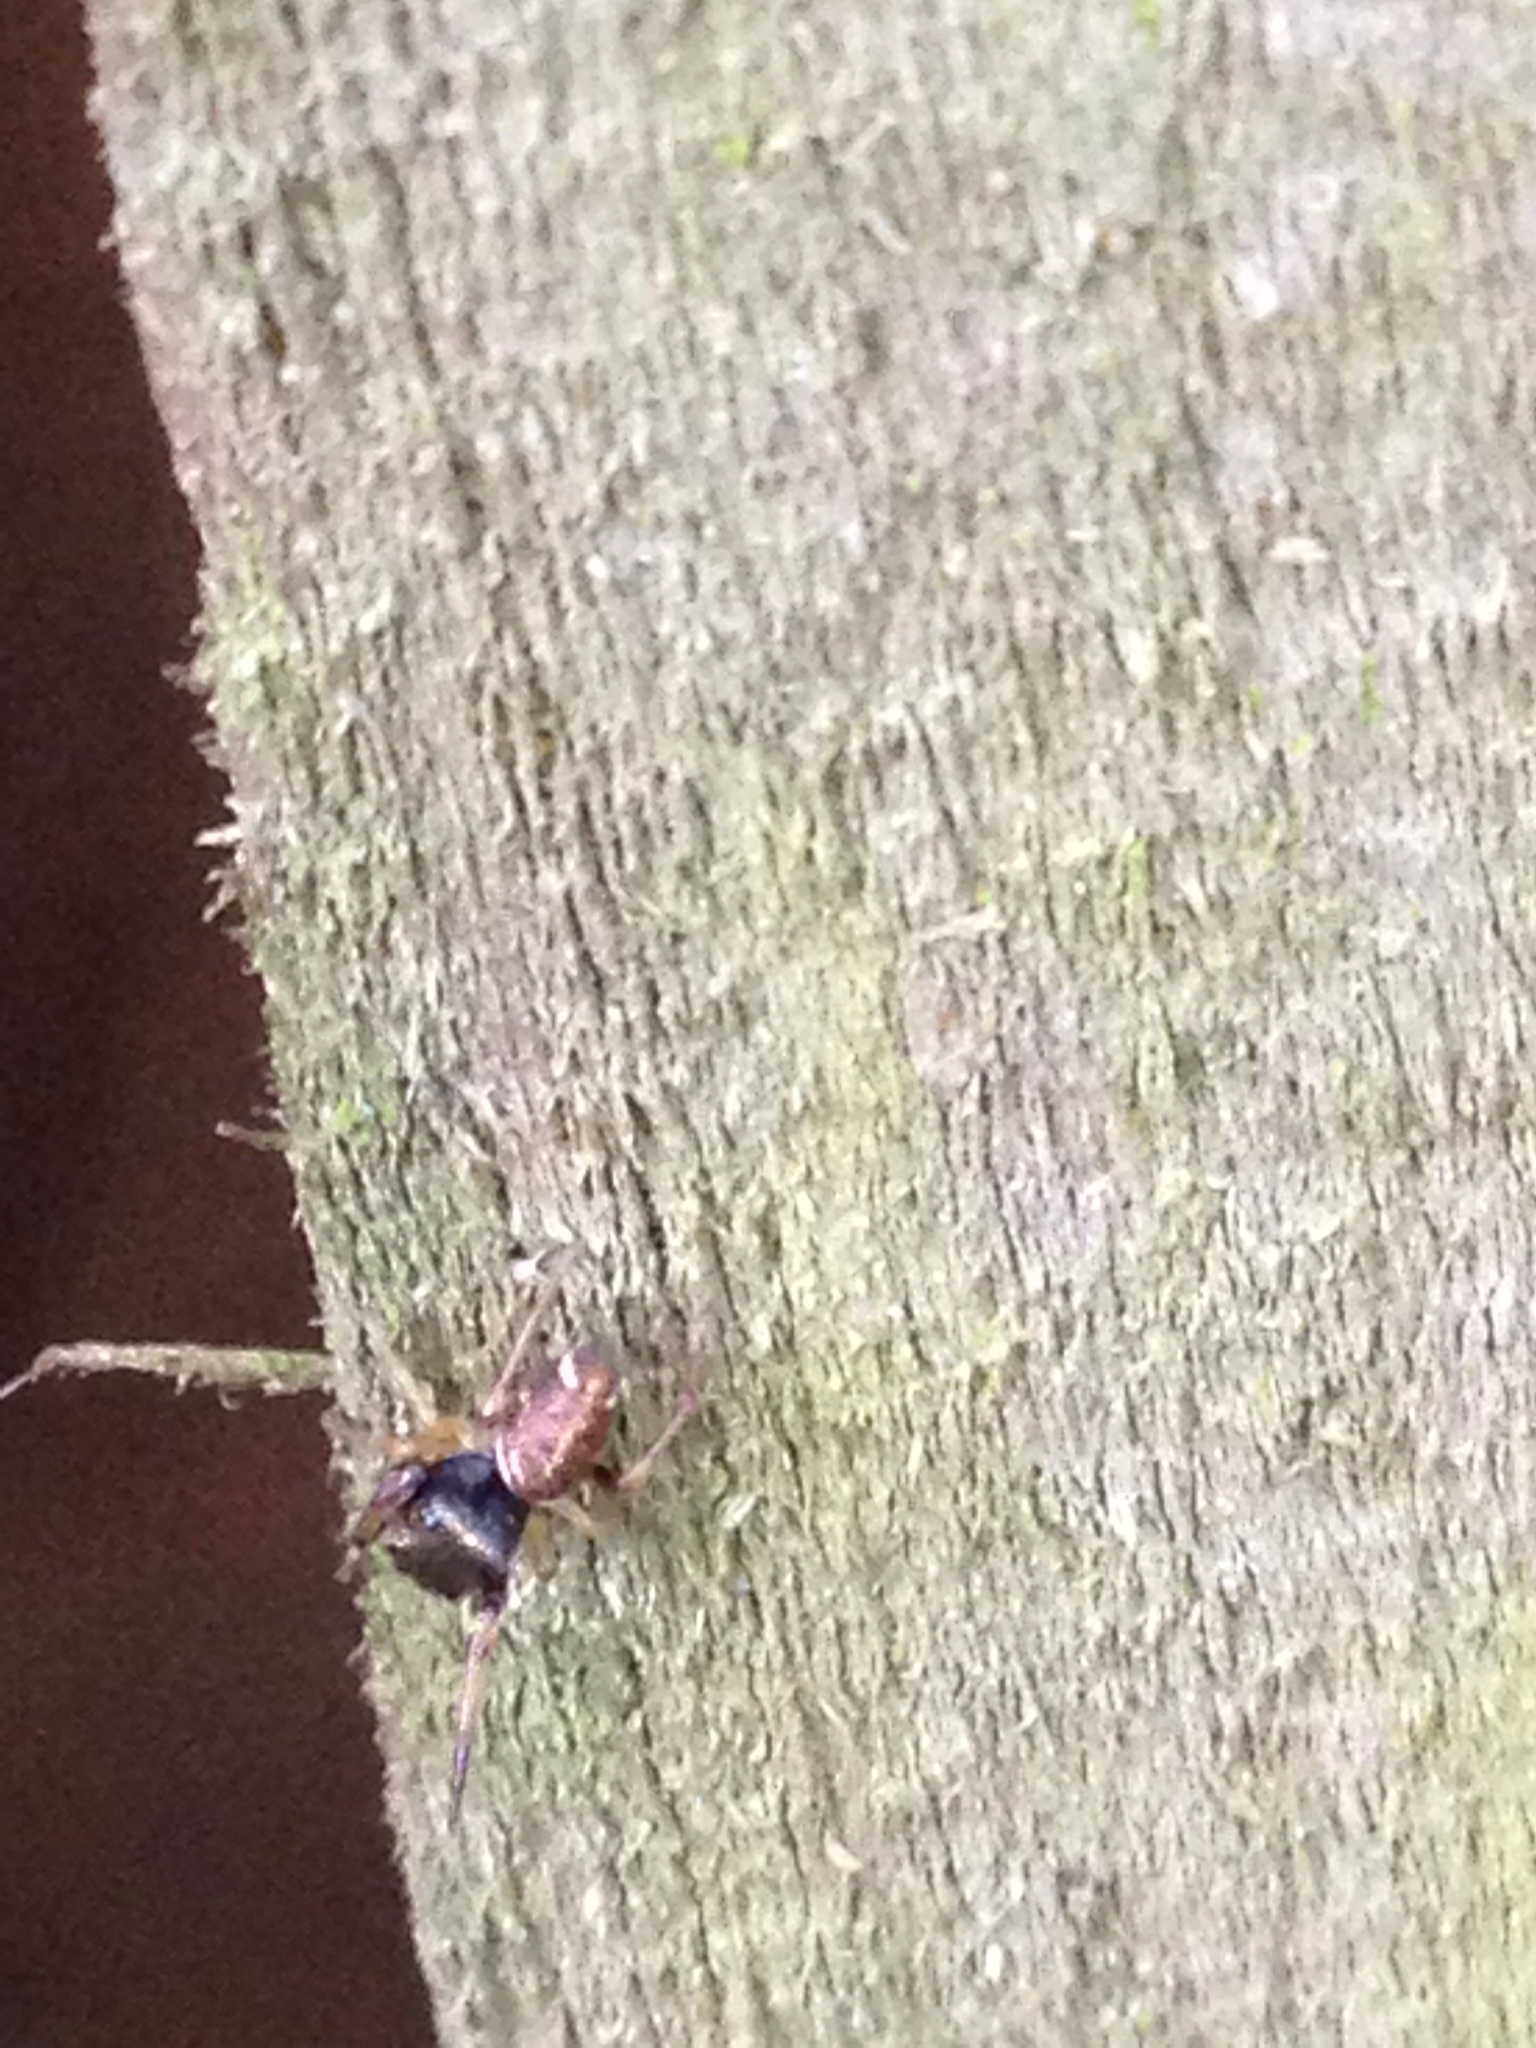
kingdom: Animalia
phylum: Arthropoda
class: Arachnida
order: Araneae
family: Salticidae
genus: Zygoballus
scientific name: Zygoballus rufipes
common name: Jumping spiders
